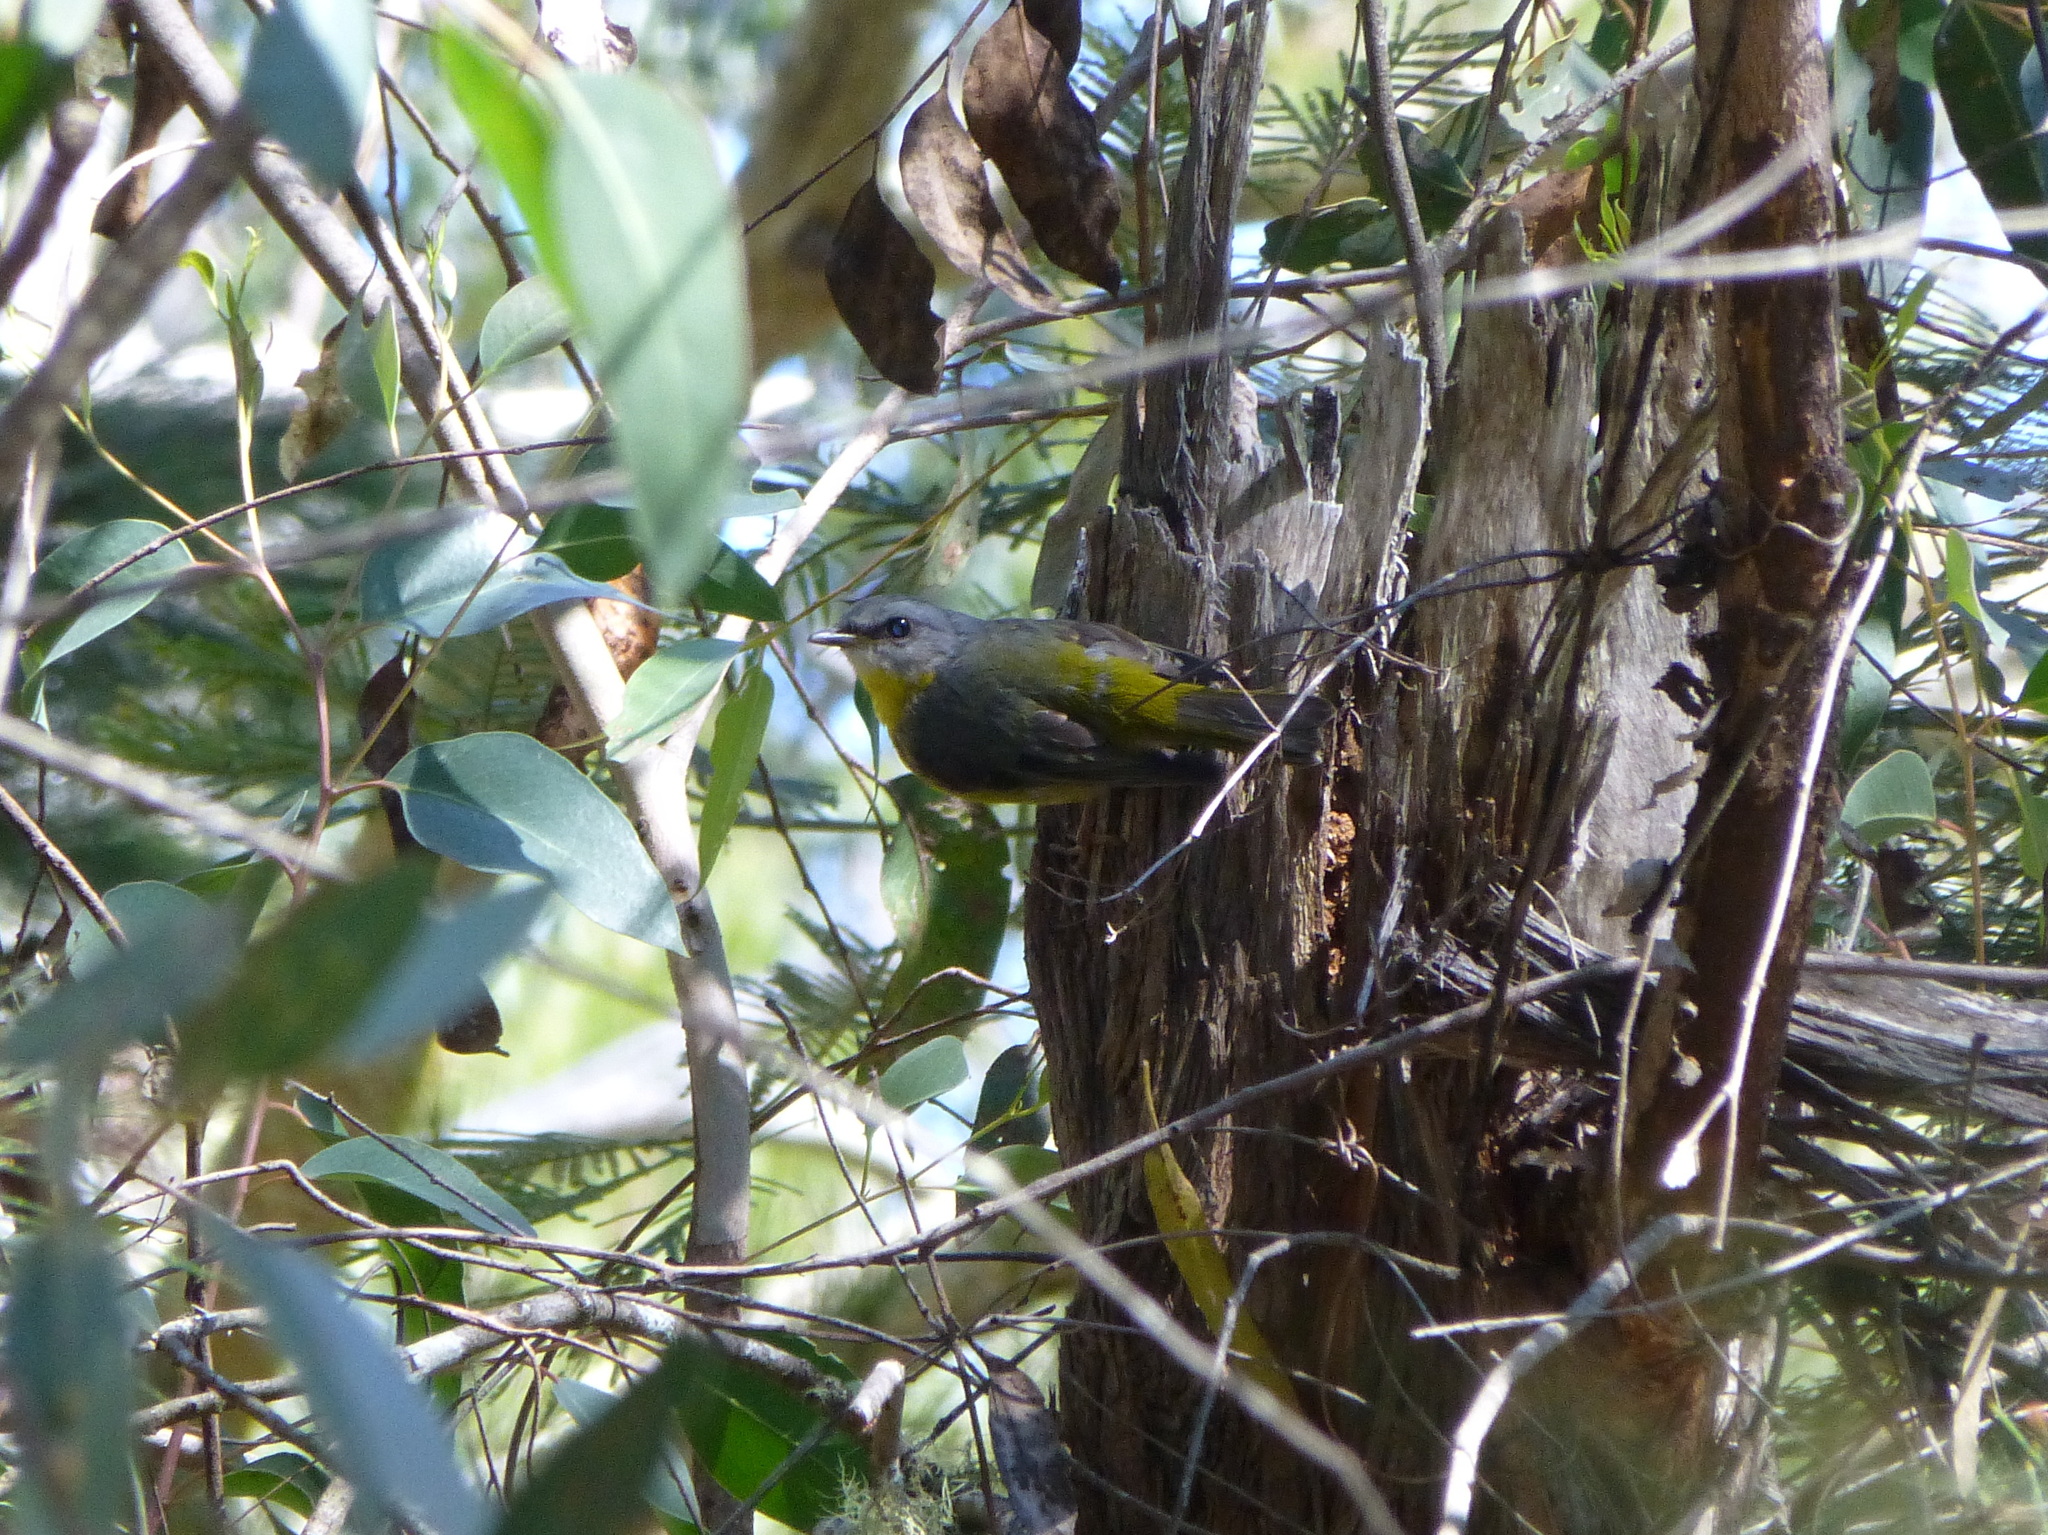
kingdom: Animalia
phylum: Chordata
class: Aves
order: Passeriformes
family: Petroicidae
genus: Eopsaltria
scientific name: Eopsaltria australis
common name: Eastern yellow robin
